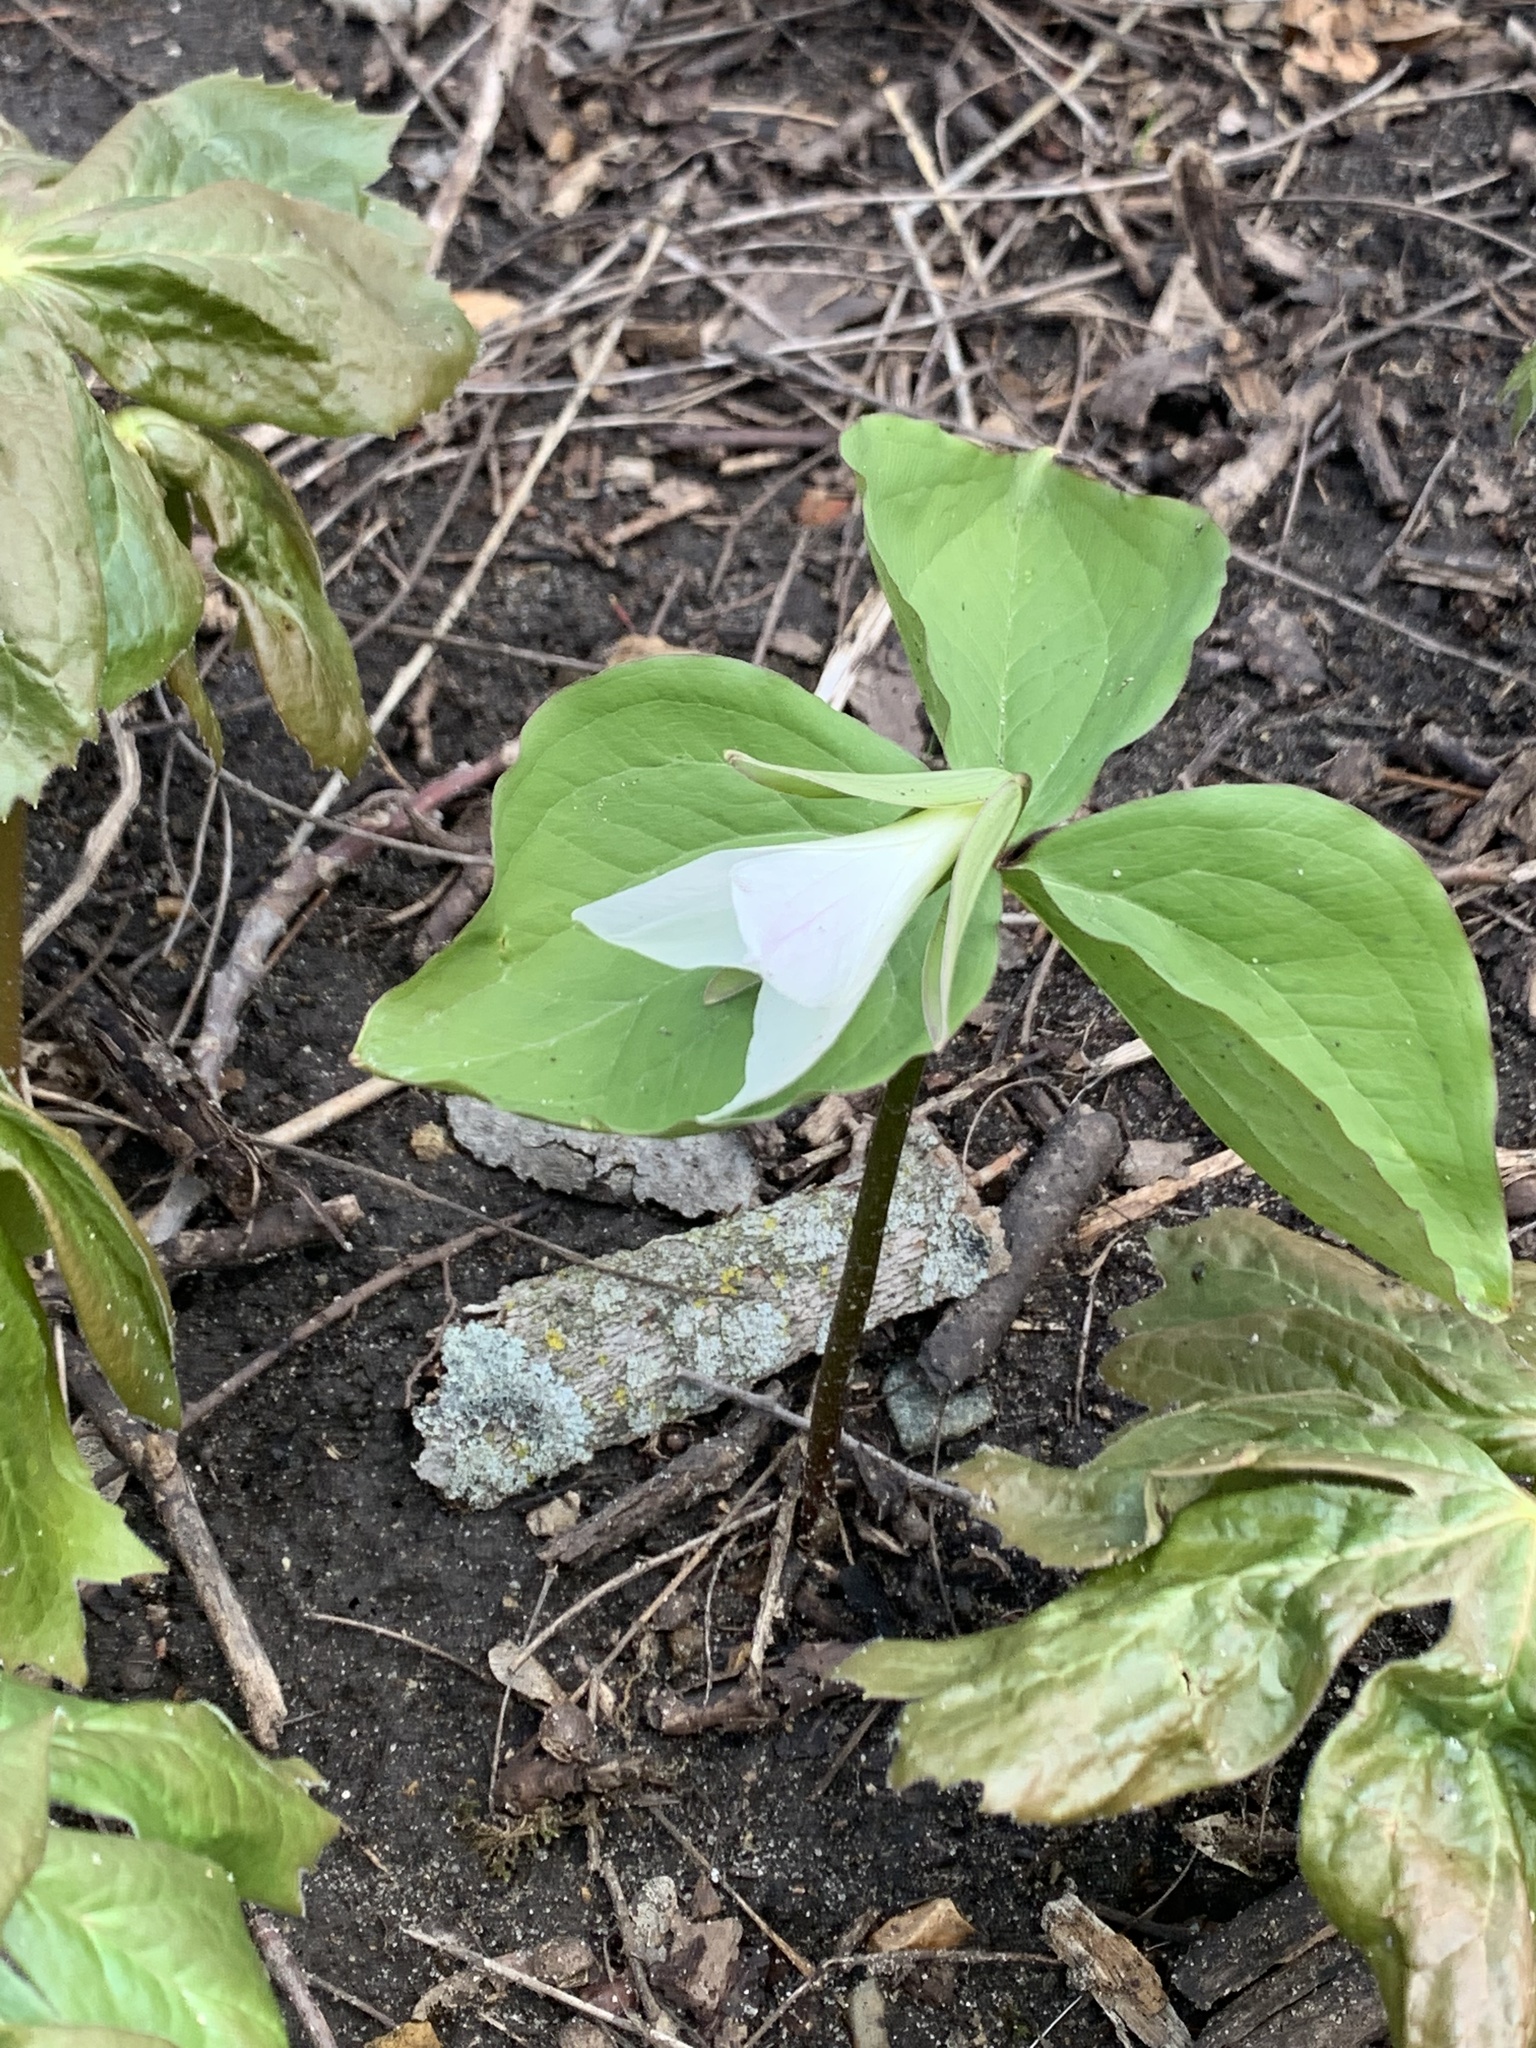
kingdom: Plantae
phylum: Tracheophyta
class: Liliopsida
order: Liliales
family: Melanthiaceae
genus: Trillium
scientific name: Trillium grandiflorum
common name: Great white trillium
